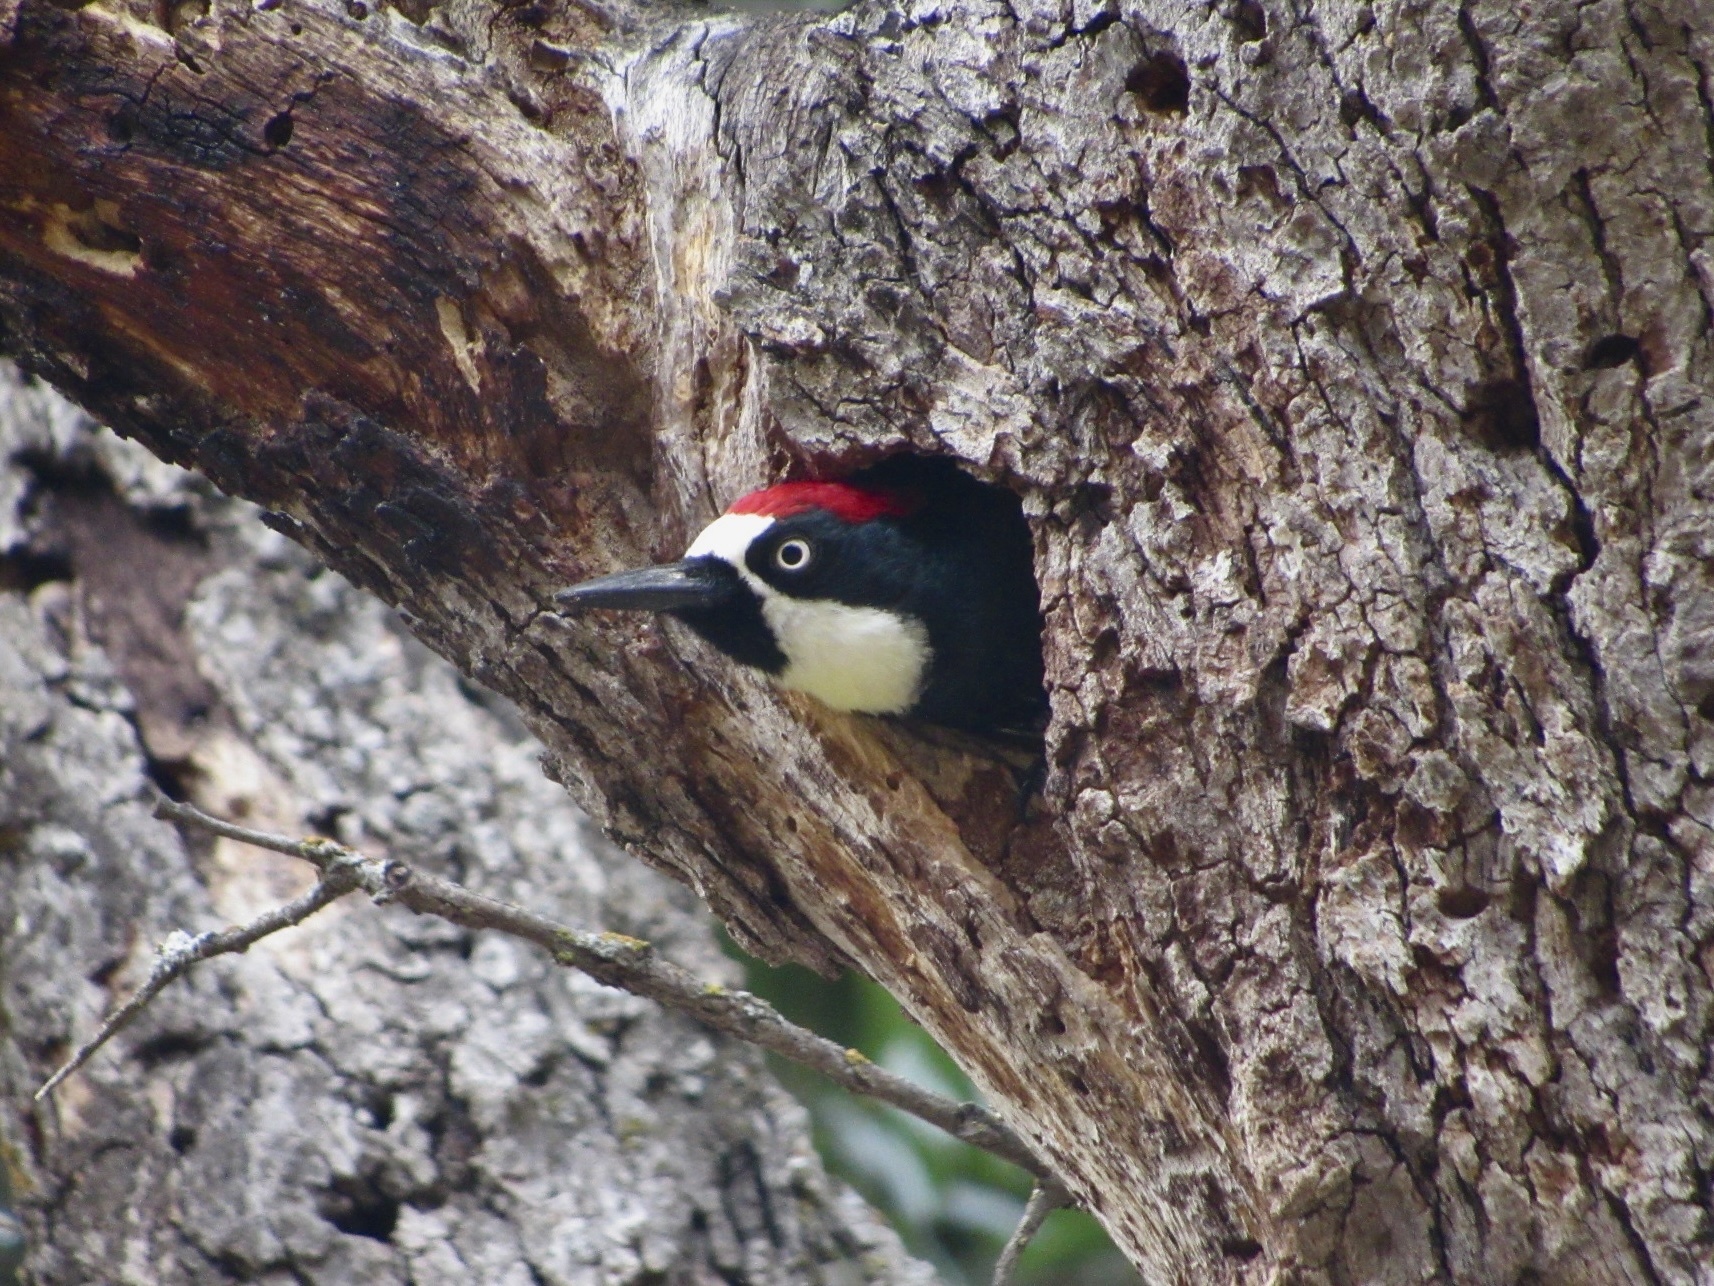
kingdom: Animalia
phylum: Chordata
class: Aves
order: Piciformes
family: Picidae
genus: Melanerpes
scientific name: Melanerpes formicivorus
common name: Acorn woodpecker
